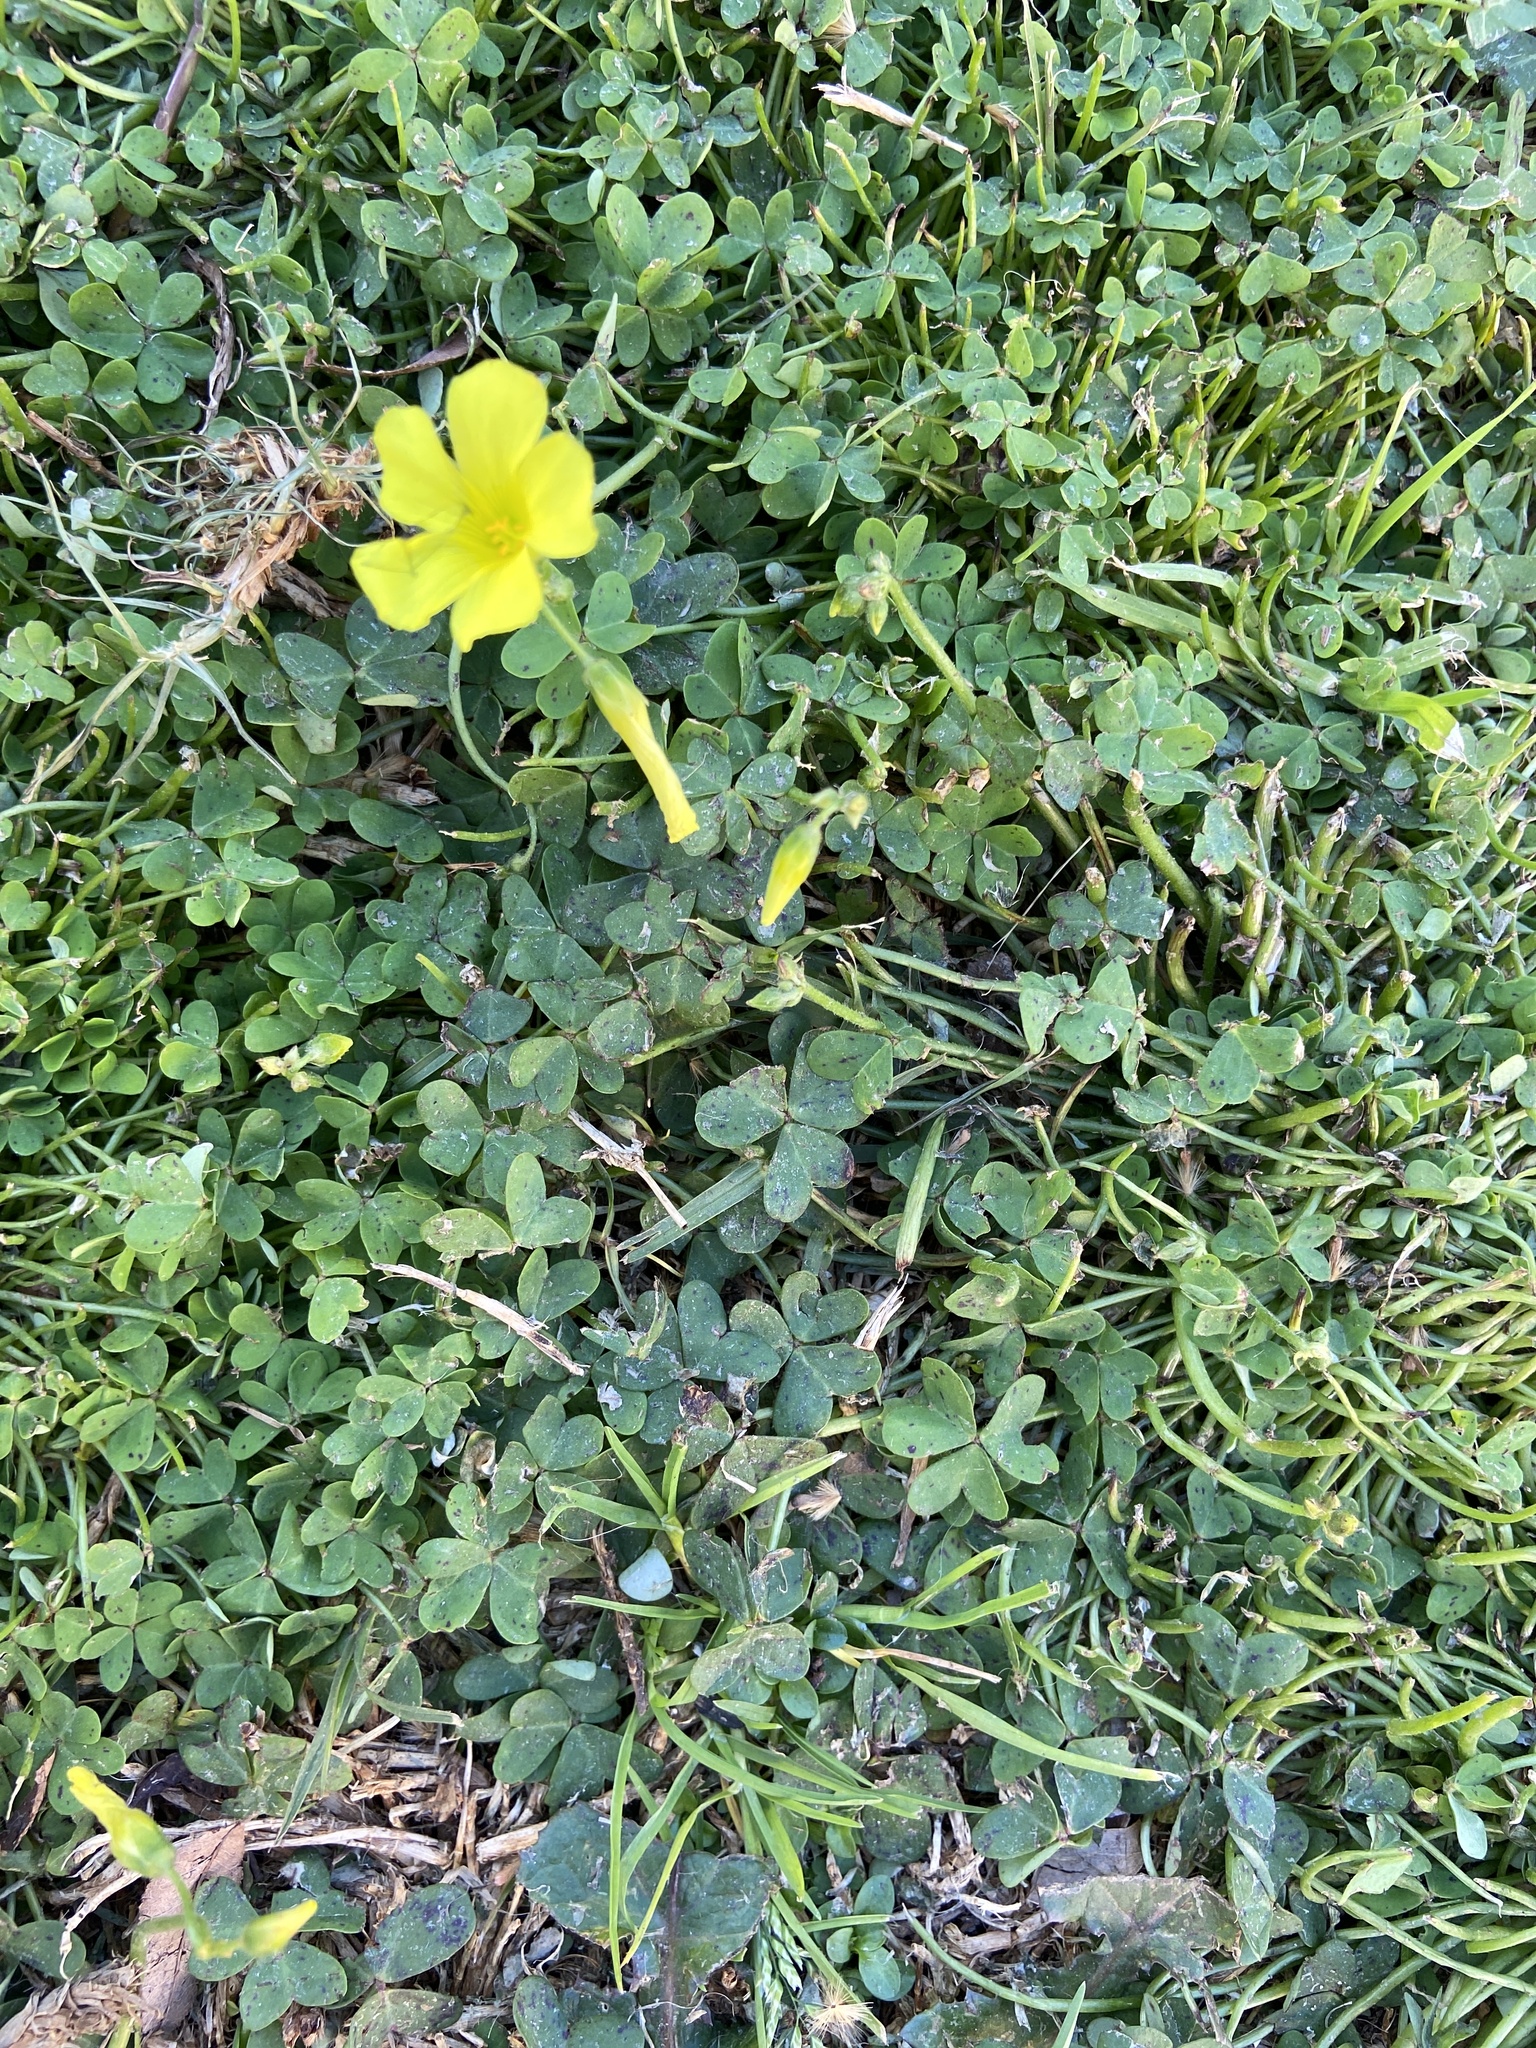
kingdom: Plantae
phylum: Tracheophyta
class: Magnoliopsida
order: Oxalidales
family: Oxalidaceae
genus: Oxalis
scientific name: Oxalis pes-caprae
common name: Bermuda-buttercup
